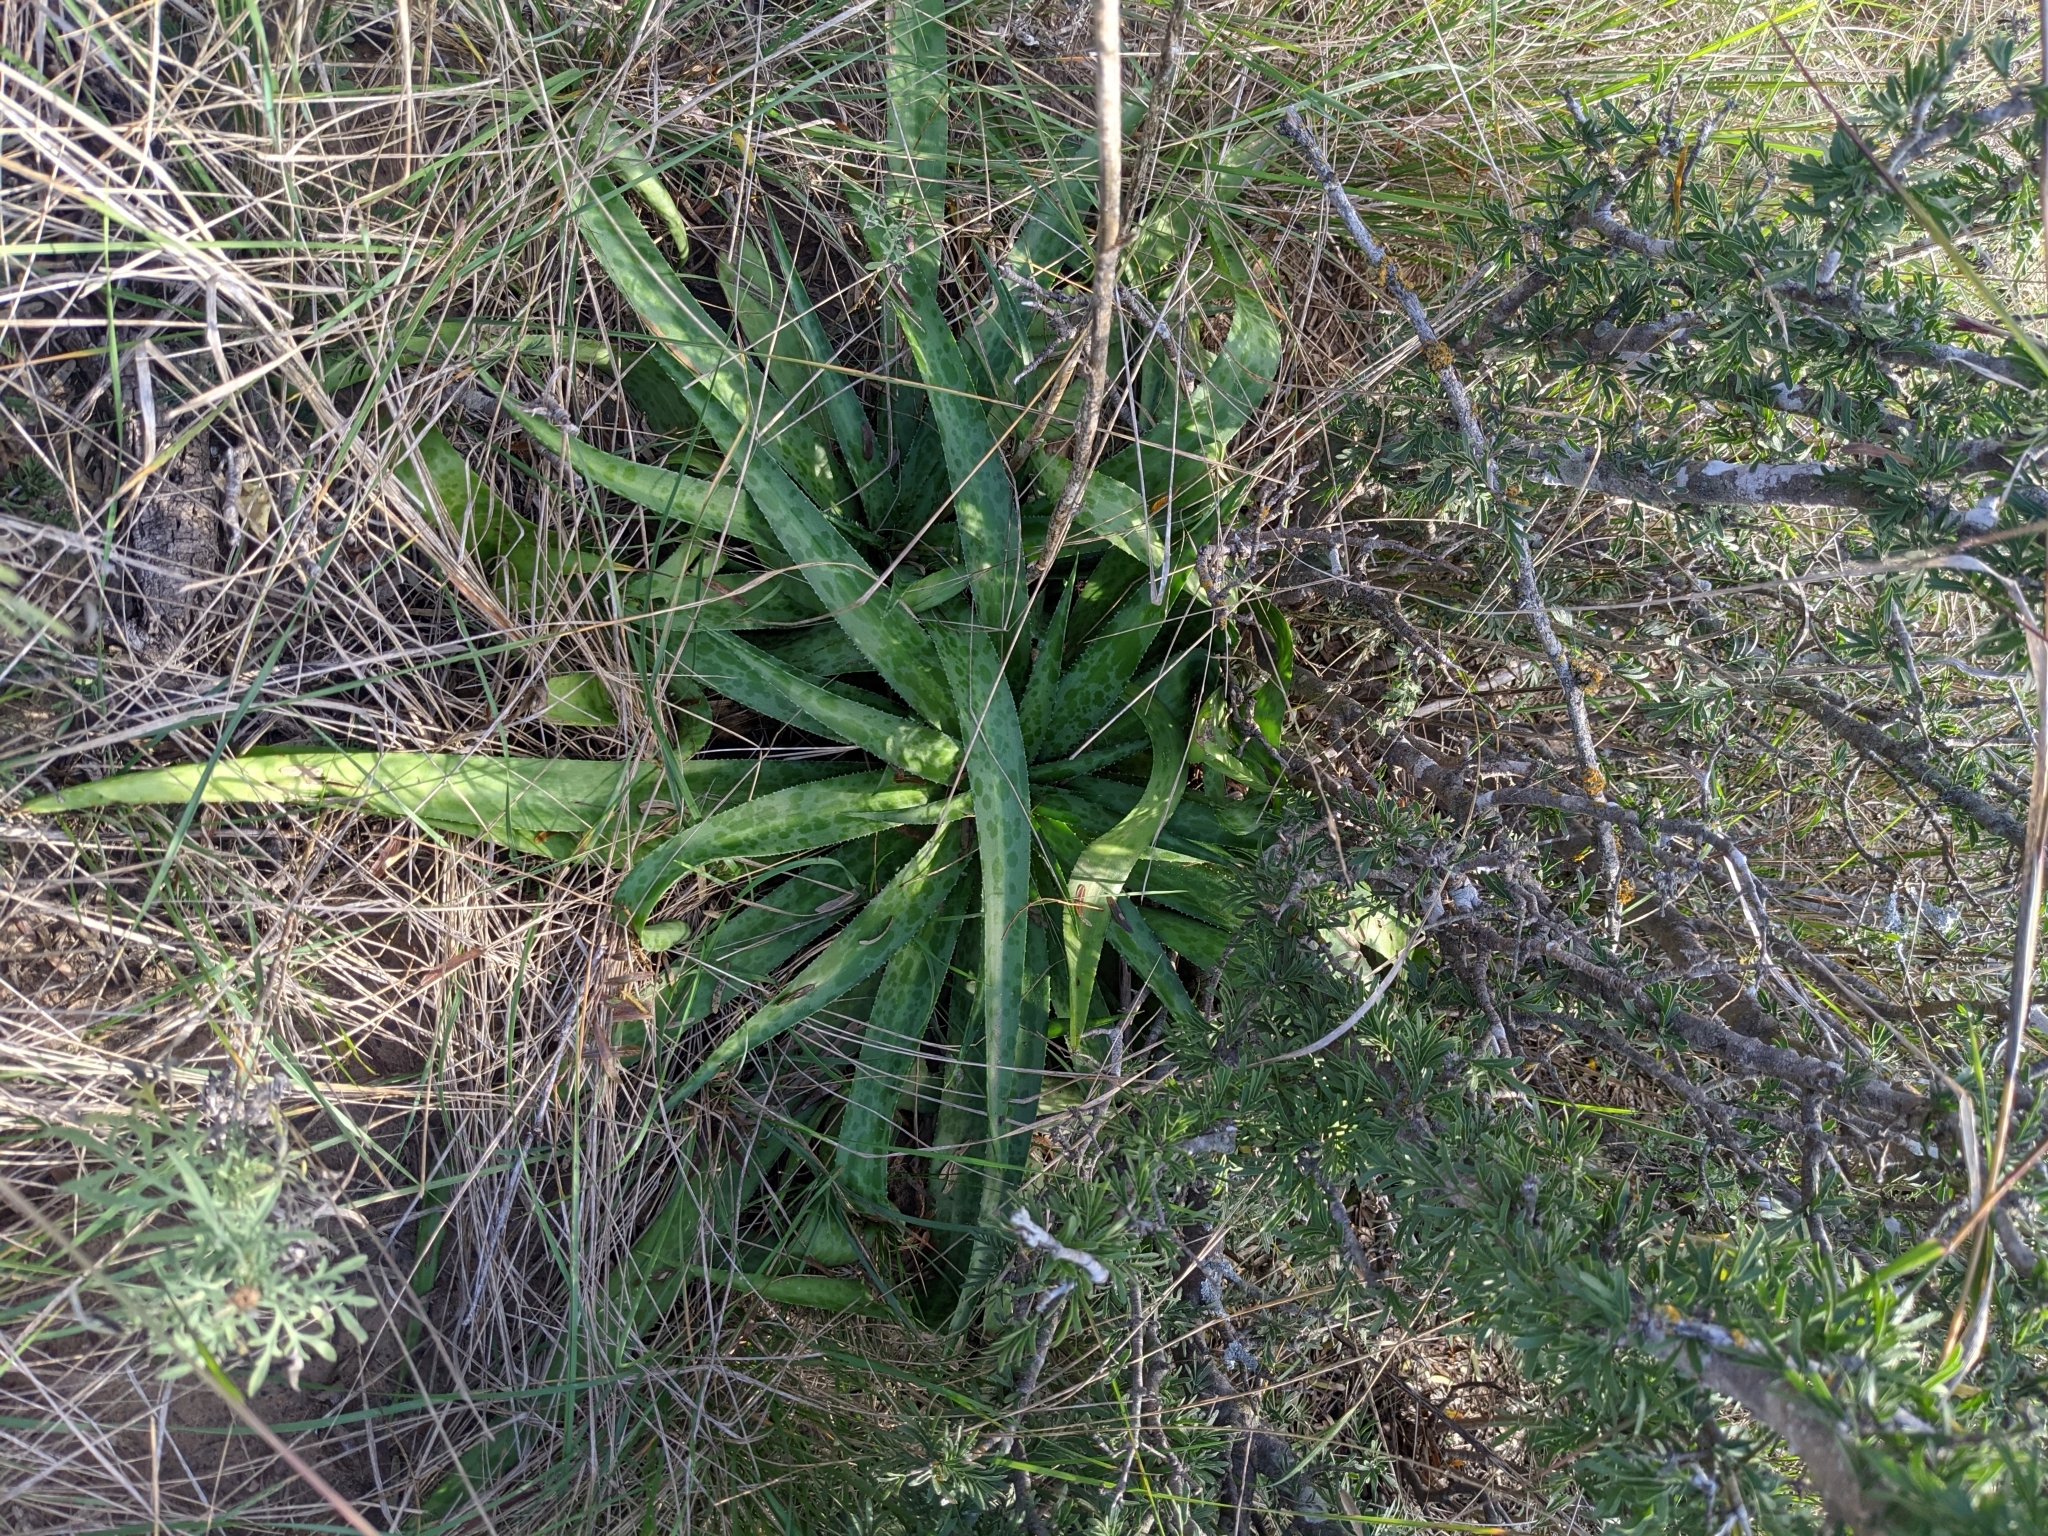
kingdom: Plantae
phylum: Tracheophyta
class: Liliopsida
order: Asparagales
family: Asparagaceae
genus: Agave
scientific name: Agave maculata
